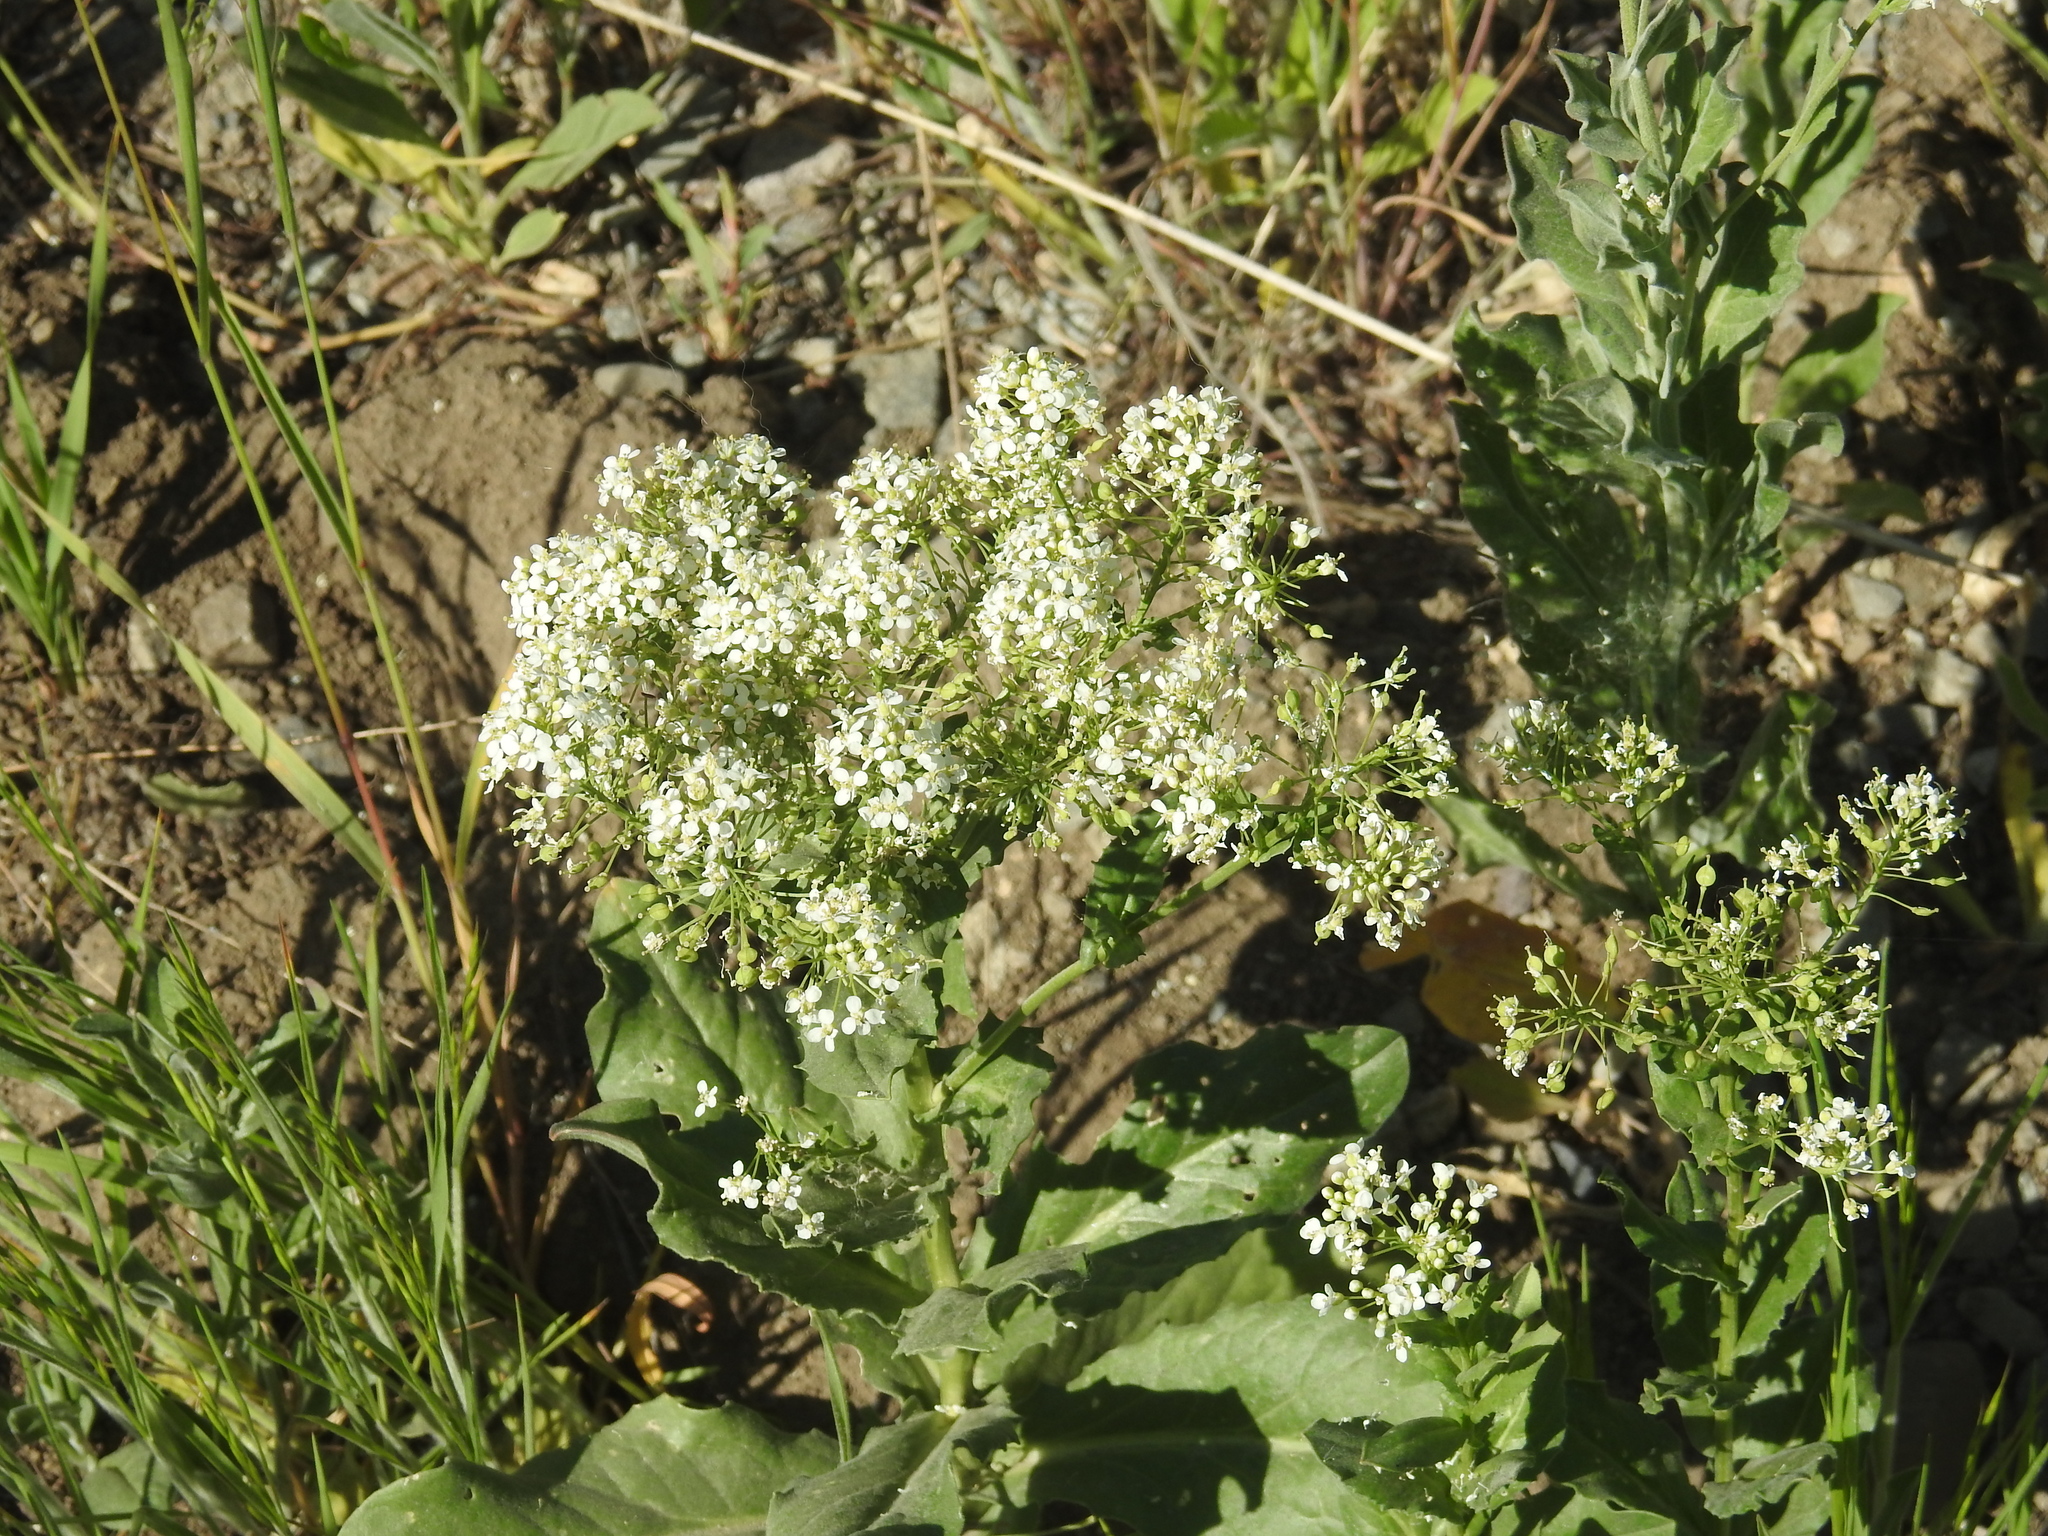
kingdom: Plantae
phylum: Tracheophyta
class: Magnoliopsida
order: Brassicales
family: Brassicaceae
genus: Lepidium
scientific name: Lepidium draba
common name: Hoary cress
